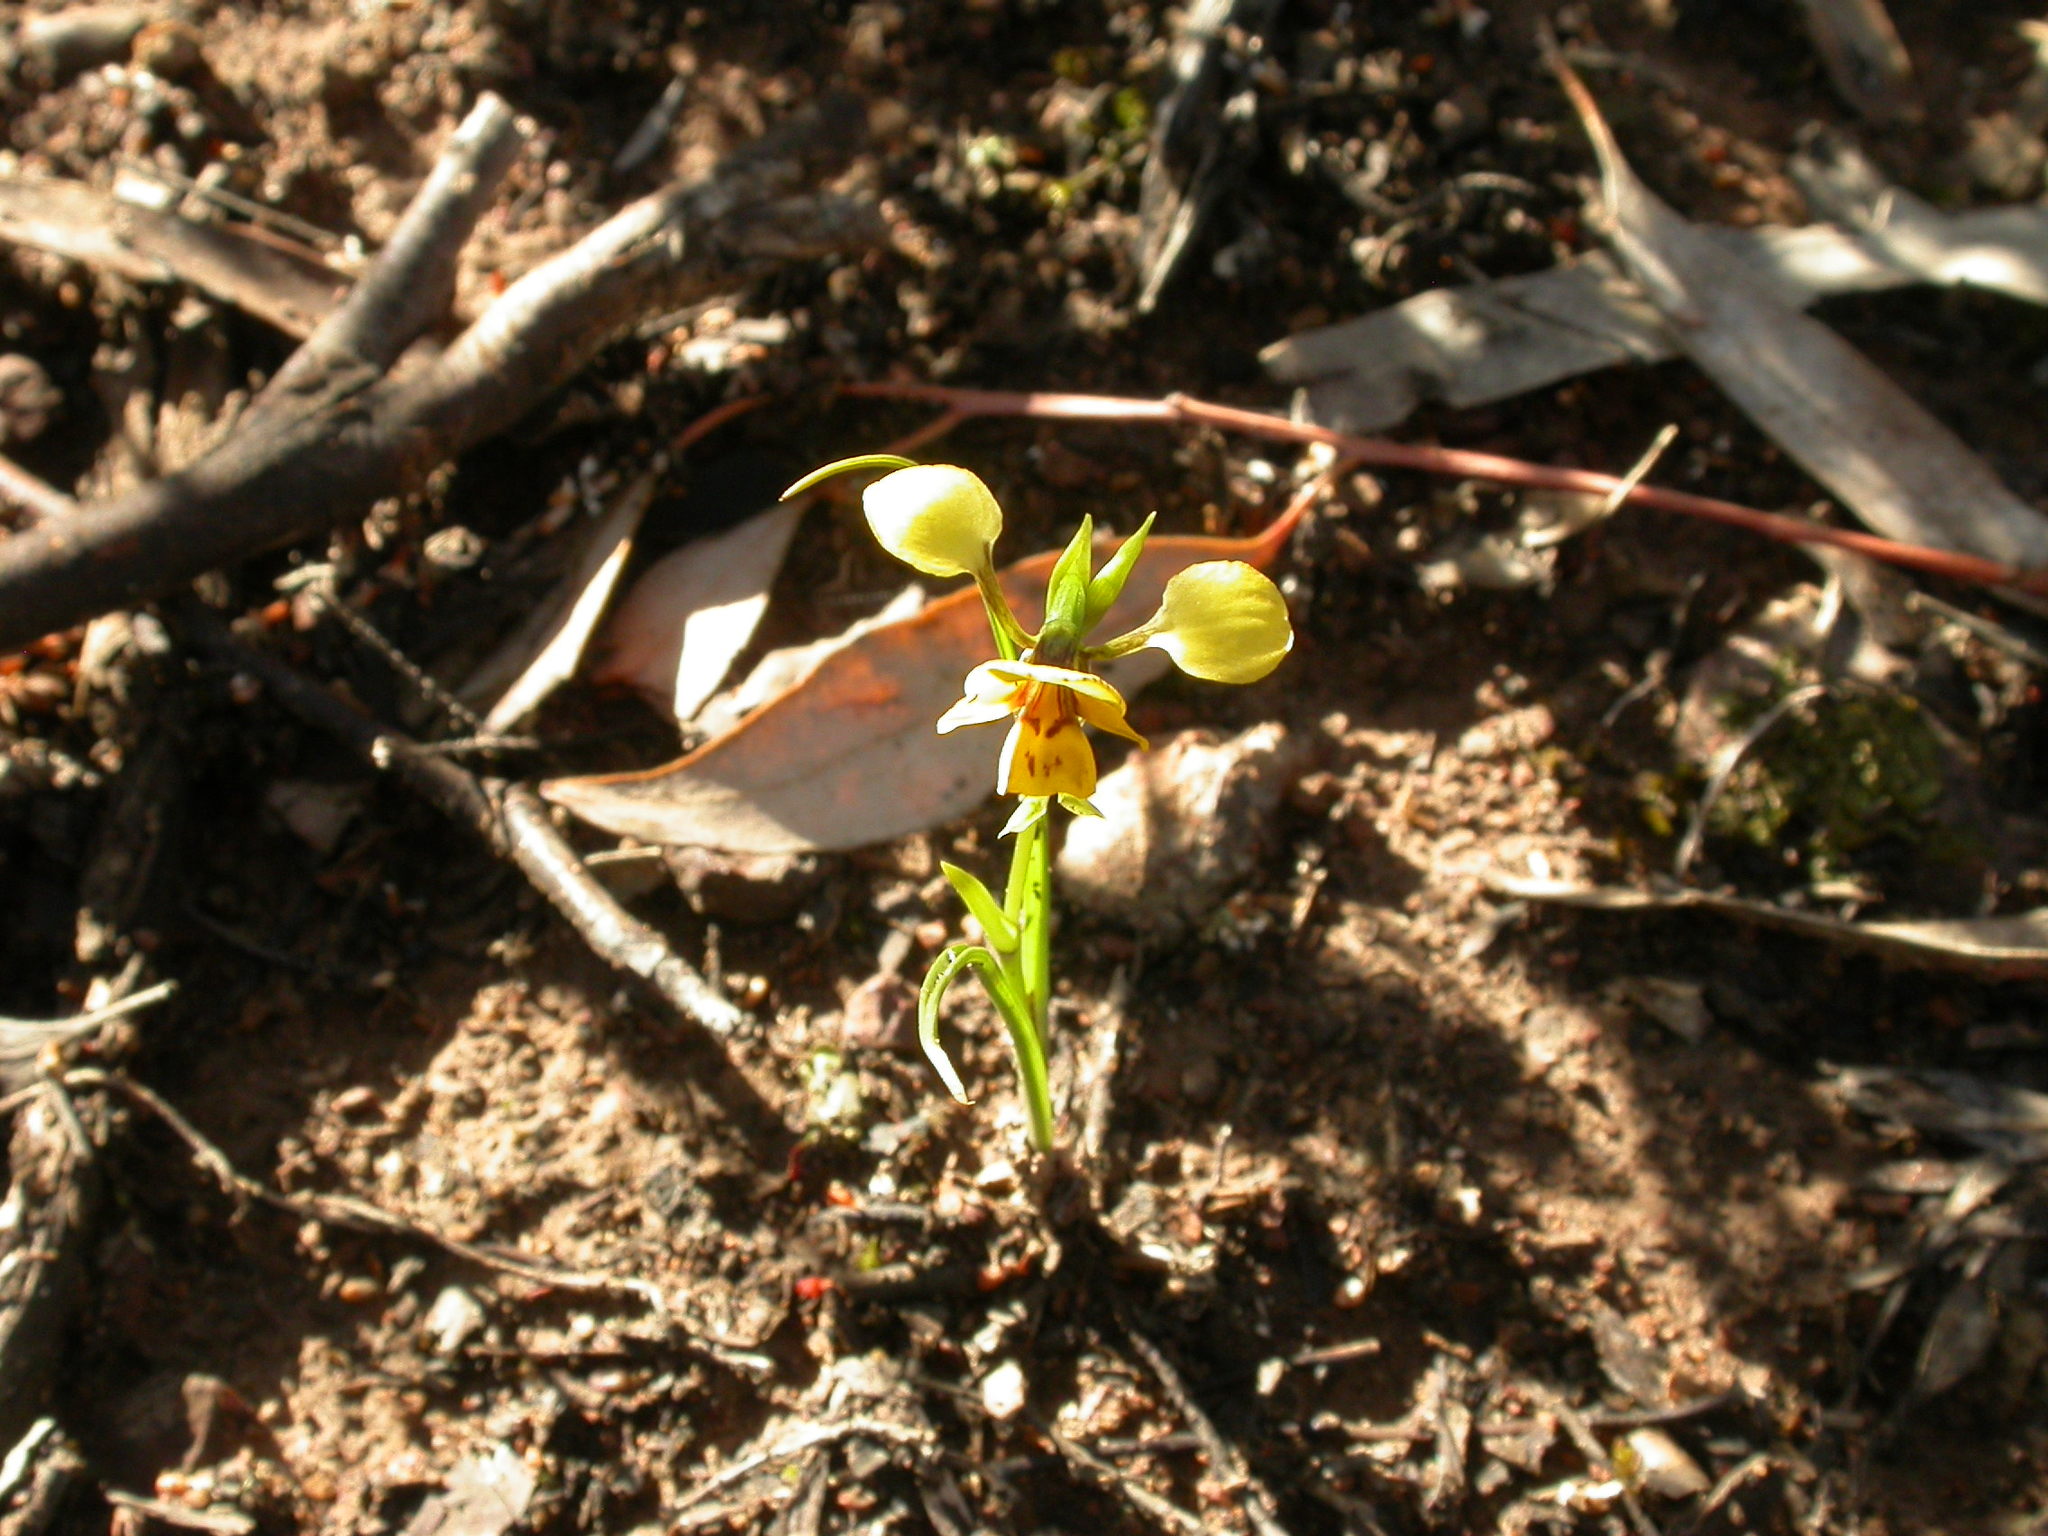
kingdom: Plantae
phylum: Tracheophyta
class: Liliopsida
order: Asparagales
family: Orchidaceae
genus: Diuris
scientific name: Diuris nigromontana
